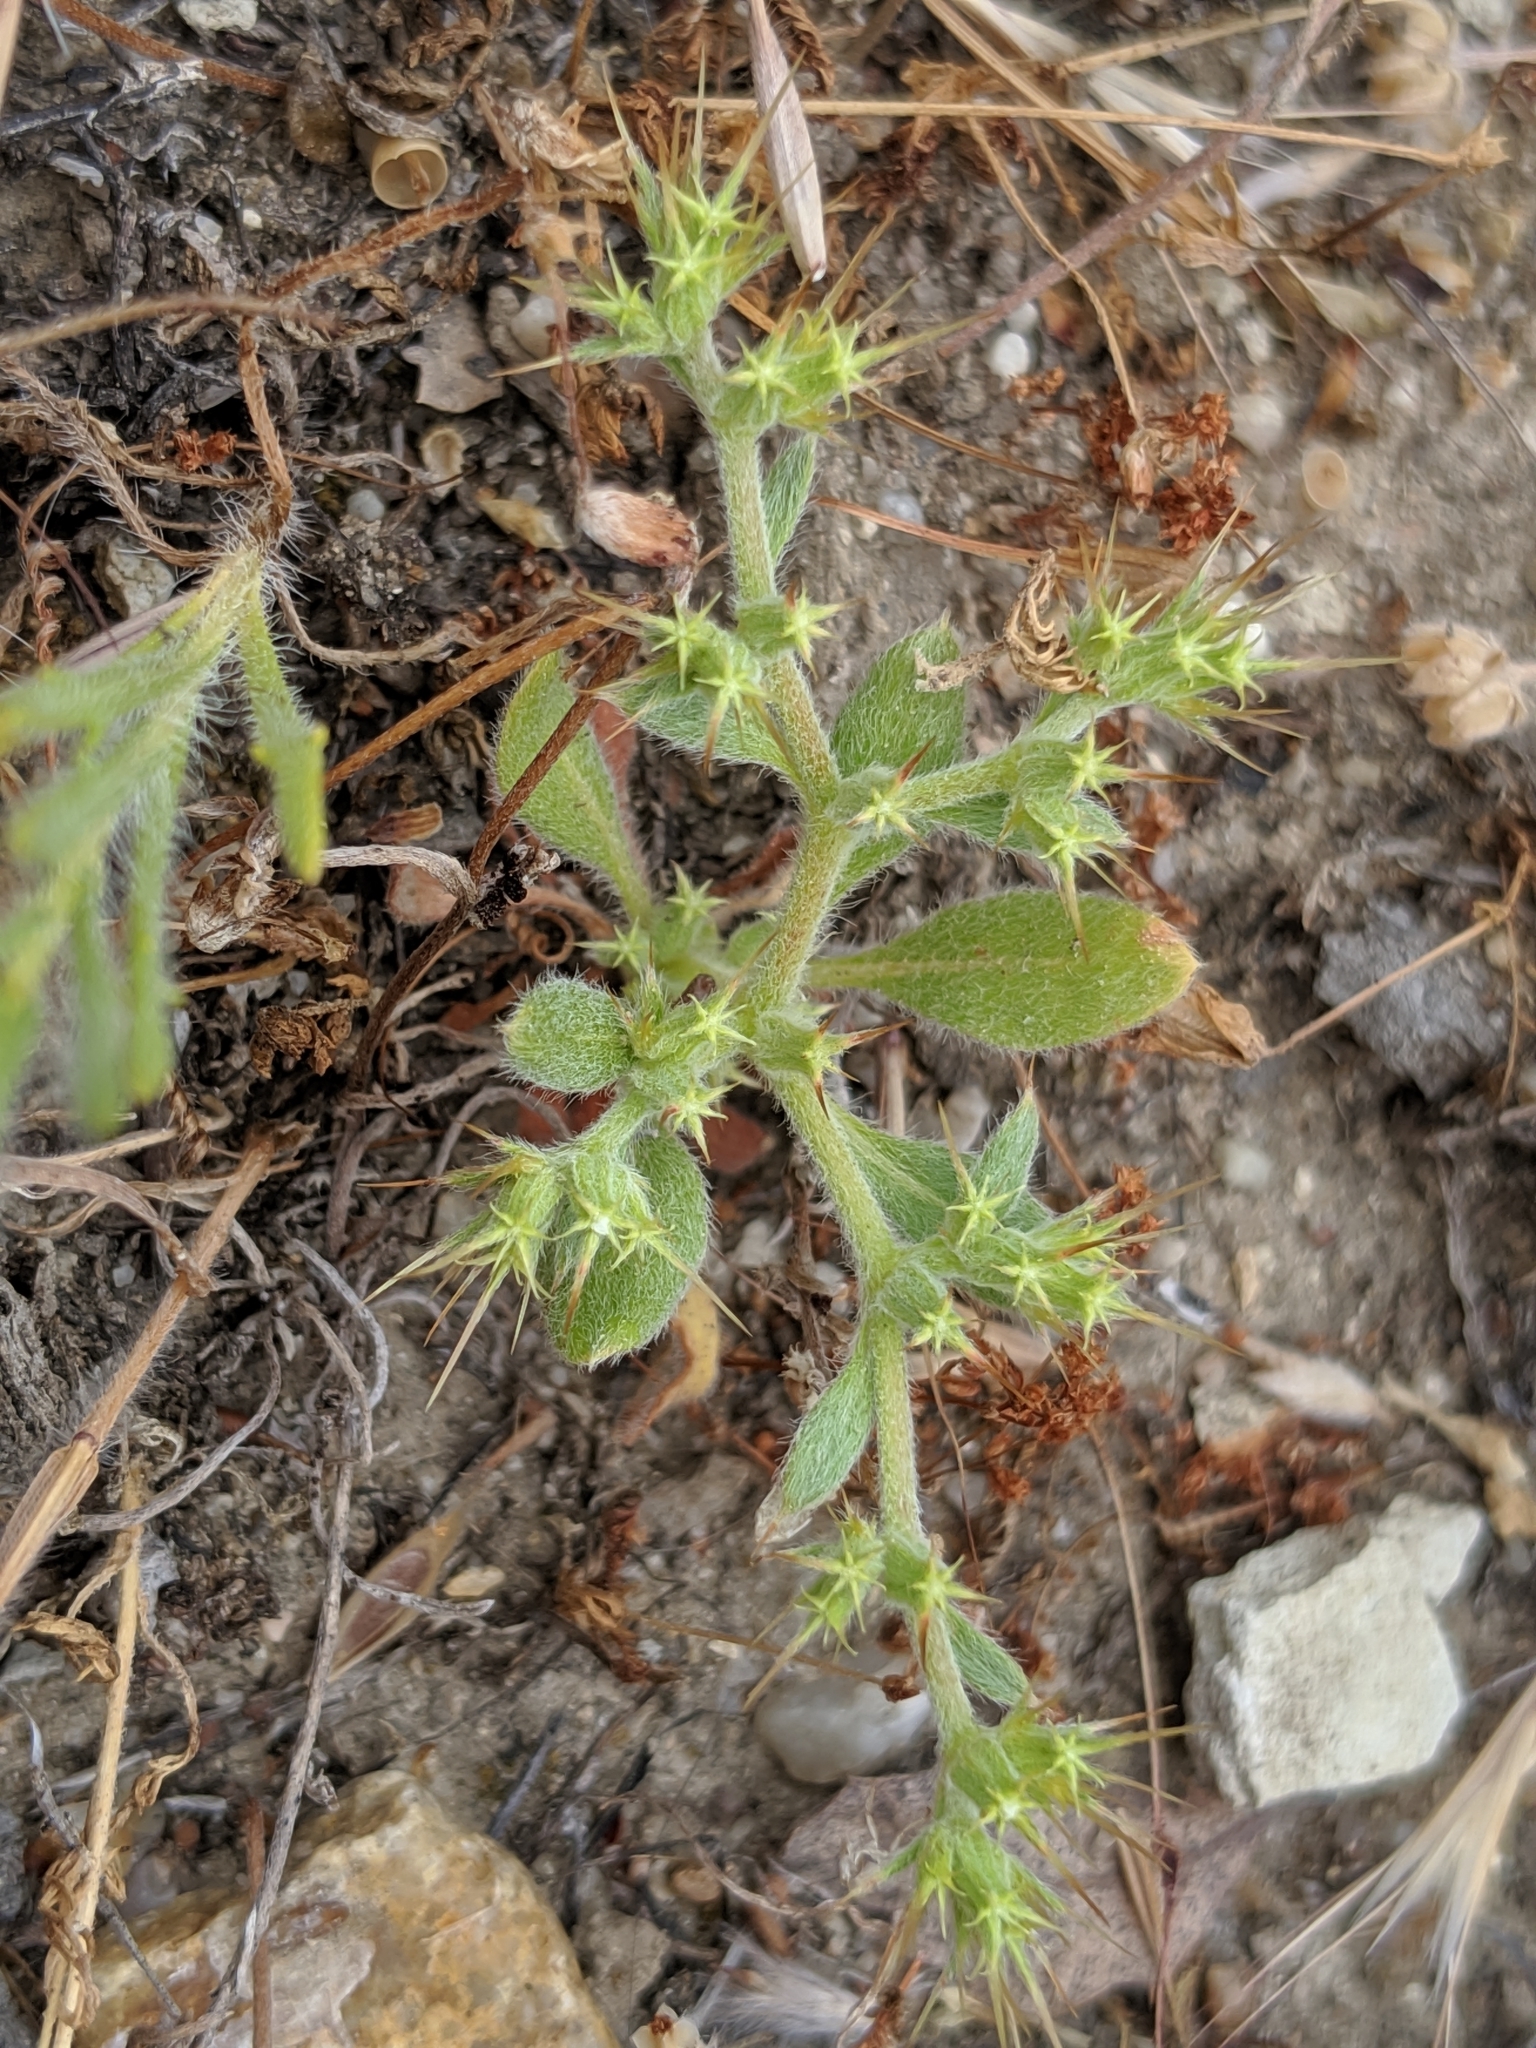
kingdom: Plantae
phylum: Tracheophyta
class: Magnoliopsida
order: Caryophyllales
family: Polygonaceae
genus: Chorizanthe
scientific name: Chorizanthe uniaristata
